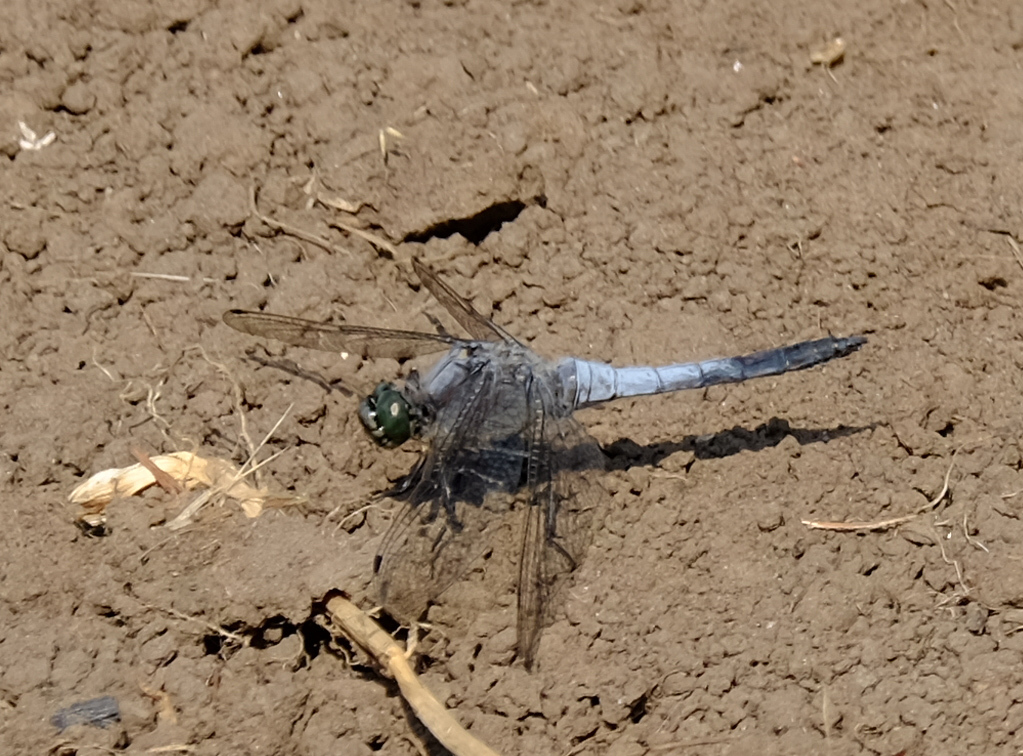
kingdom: Animalia
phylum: Arthropoda
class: Insecta
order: Odonata
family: Libellulidae
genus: Orthetrum
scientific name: Orthetrum cancellatum
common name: Black-tailed skimmer
